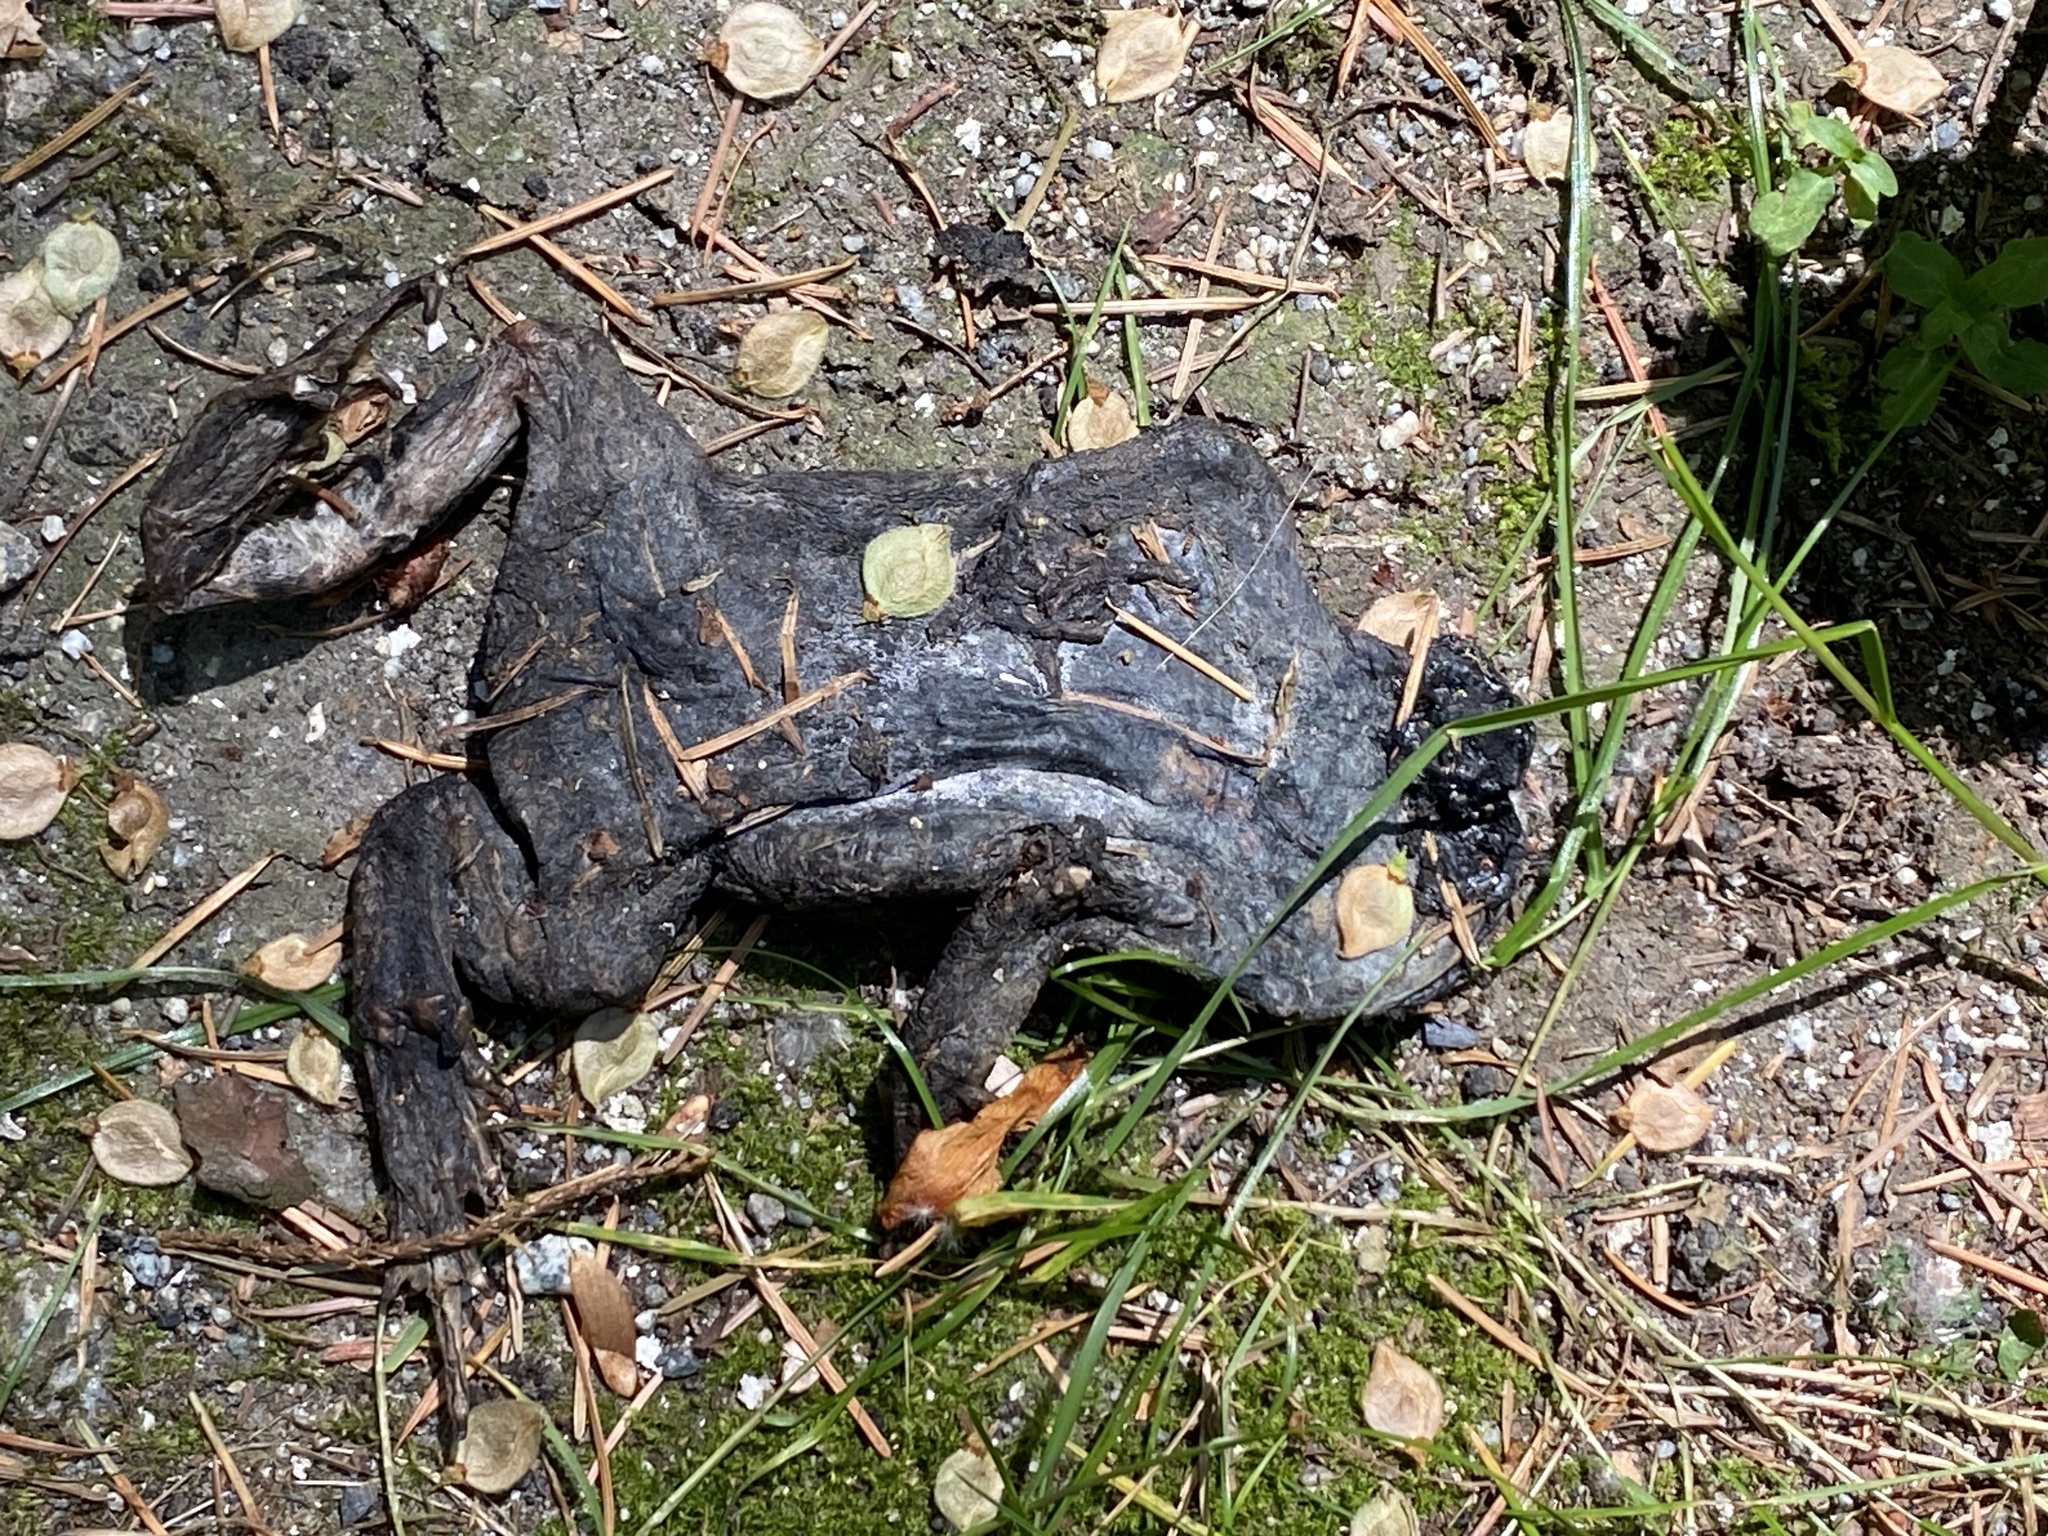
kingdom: Animalia
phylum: Chordata
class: Amphibia
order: Anura
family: Bufonidae
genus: Anaxyrus
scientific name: Anaxyrus boreas
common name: Western toad
